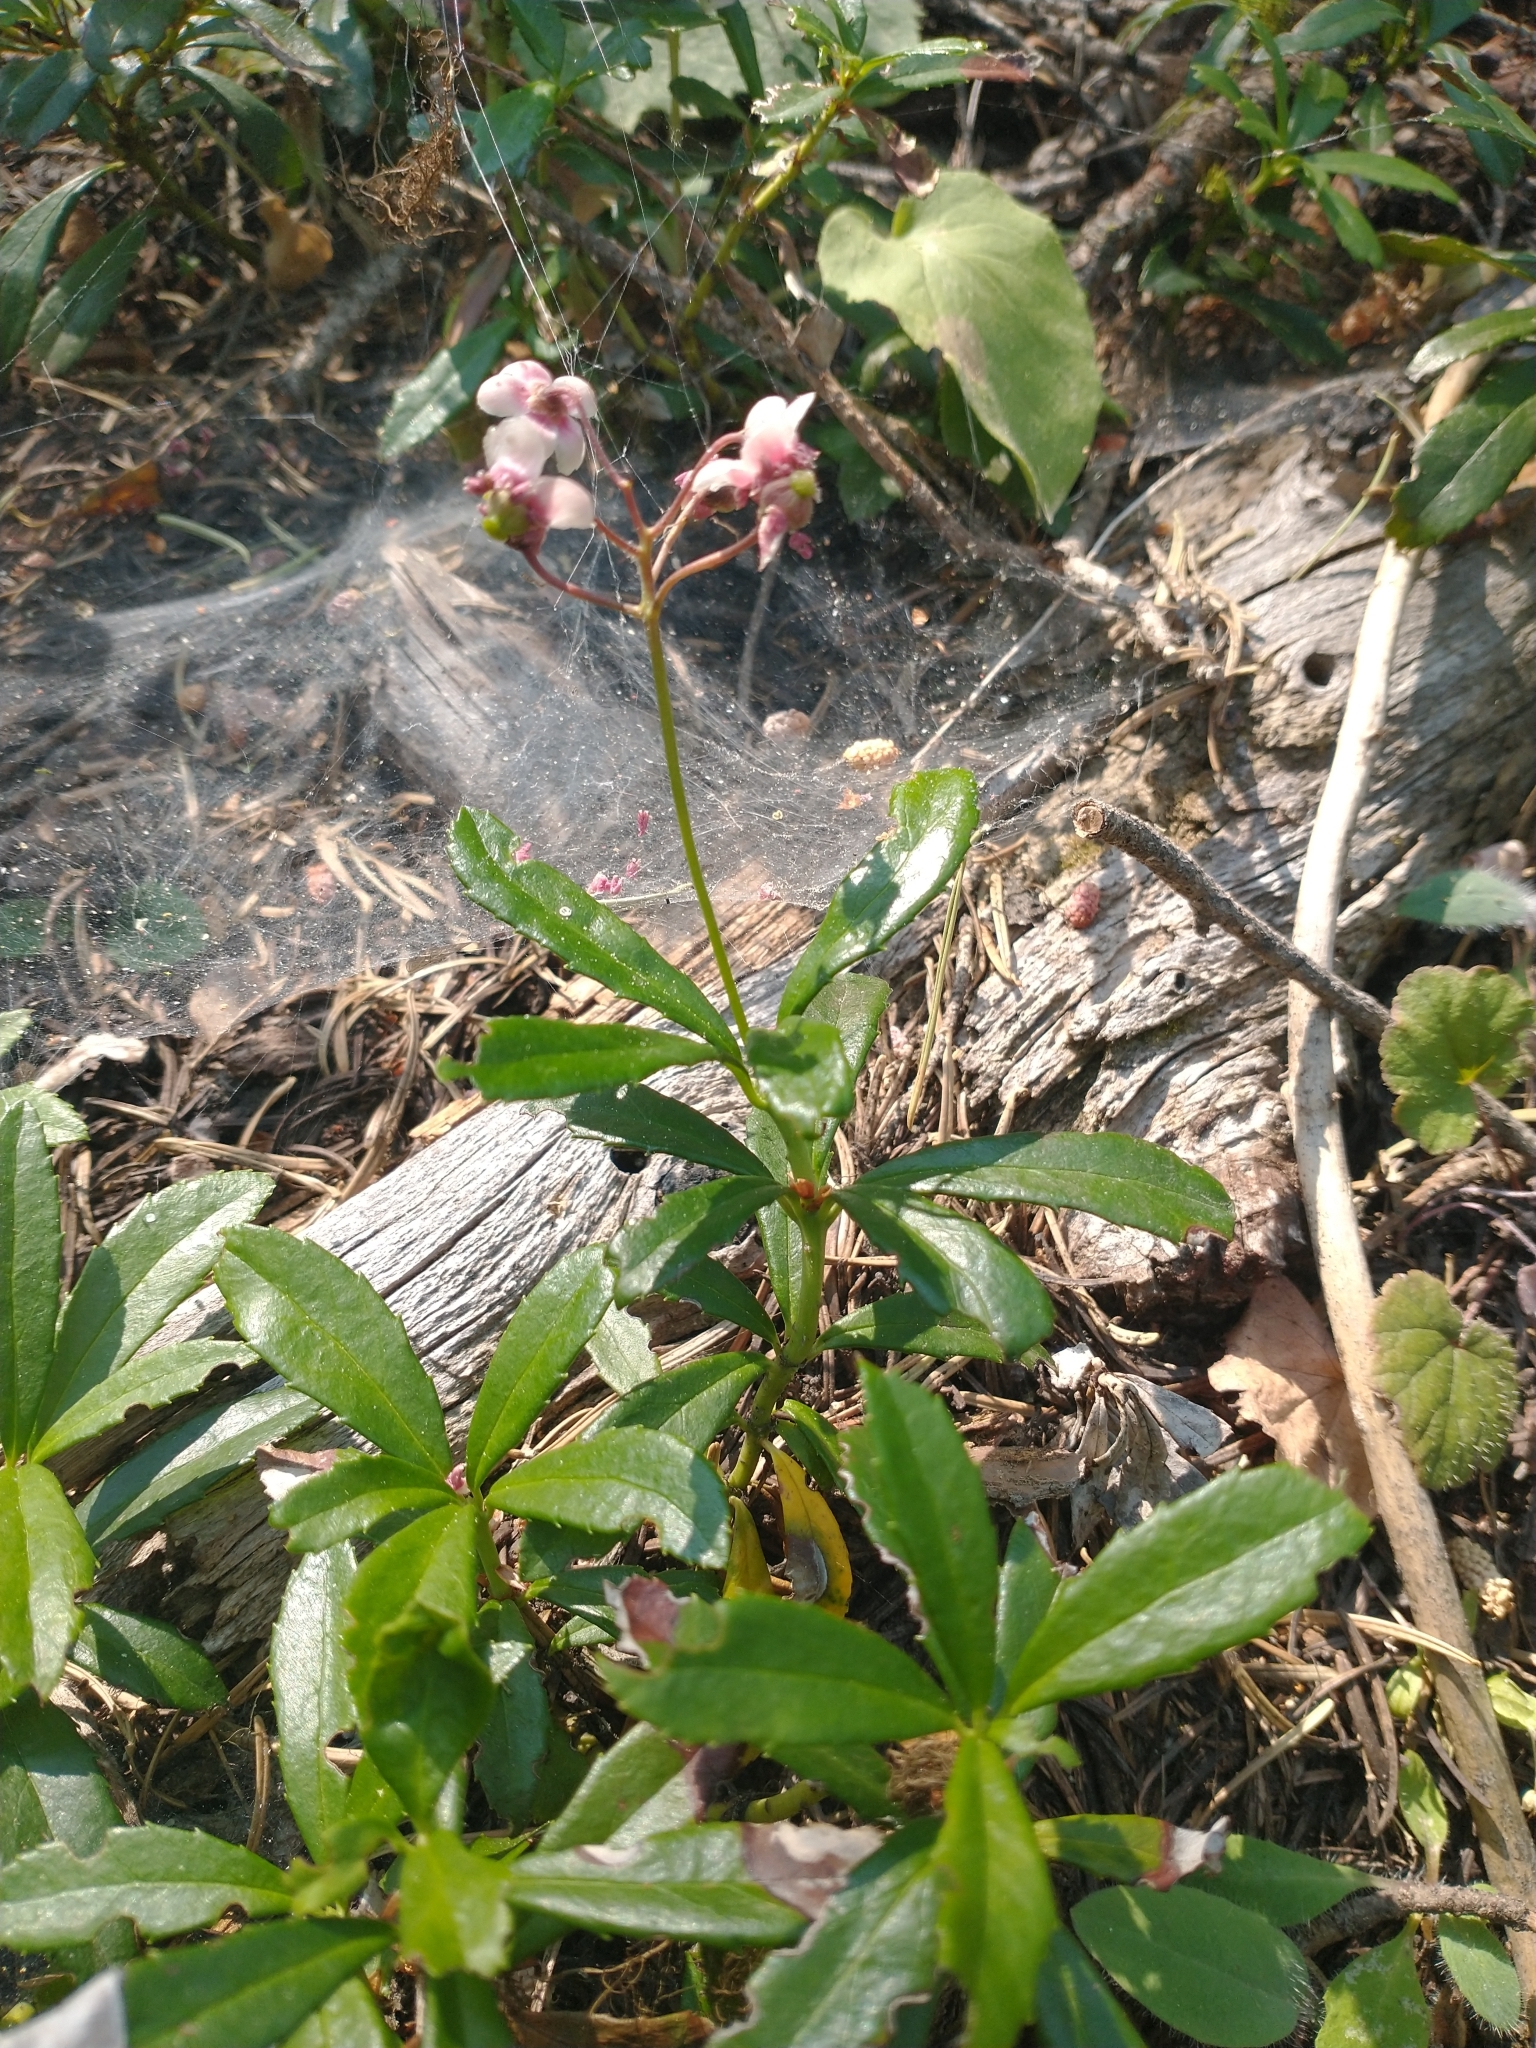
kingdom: Plantae
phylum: Tracheophyta
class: Magnoliopsida
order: Ericales
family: Ericaceae
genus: Chimaphila
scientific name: Chimaphila umbellata
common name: Pipsissewa
